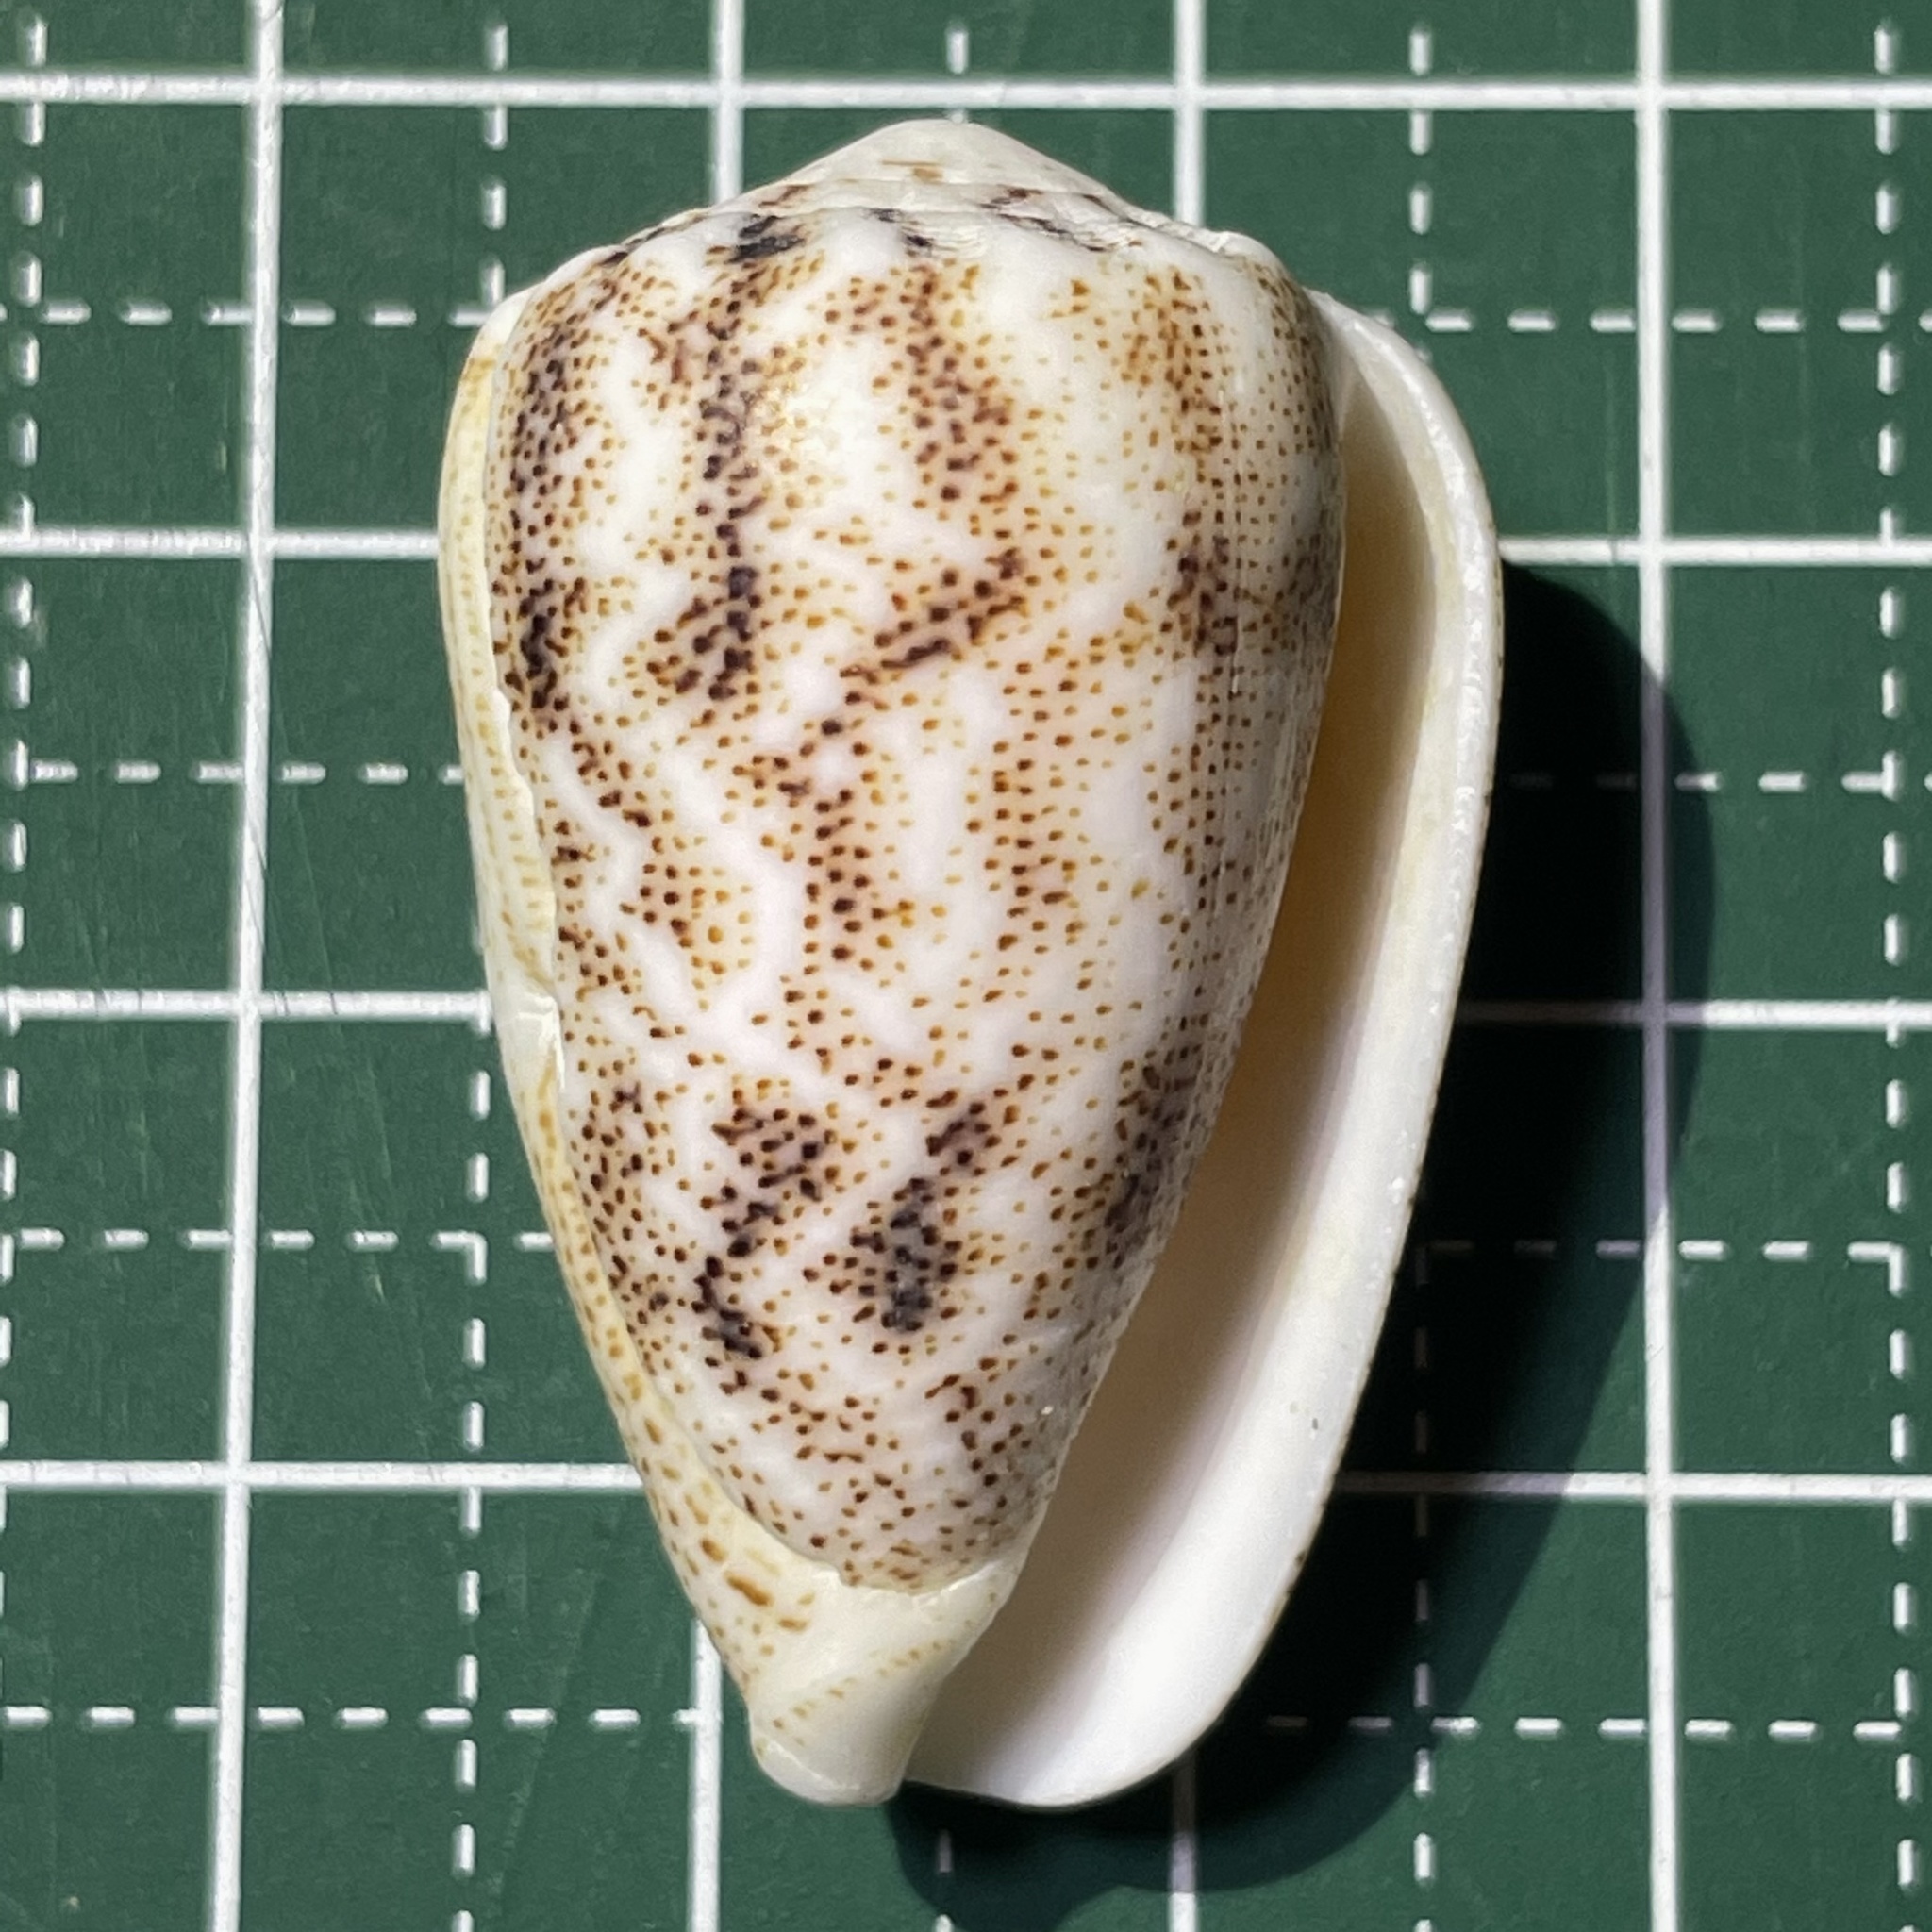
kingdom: Animalia
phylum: Mollusca
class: Gastropoda
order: Neogastropoda
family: Conidae
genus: Conus
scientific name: Conus arenatus
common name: Sand-dusted cone
